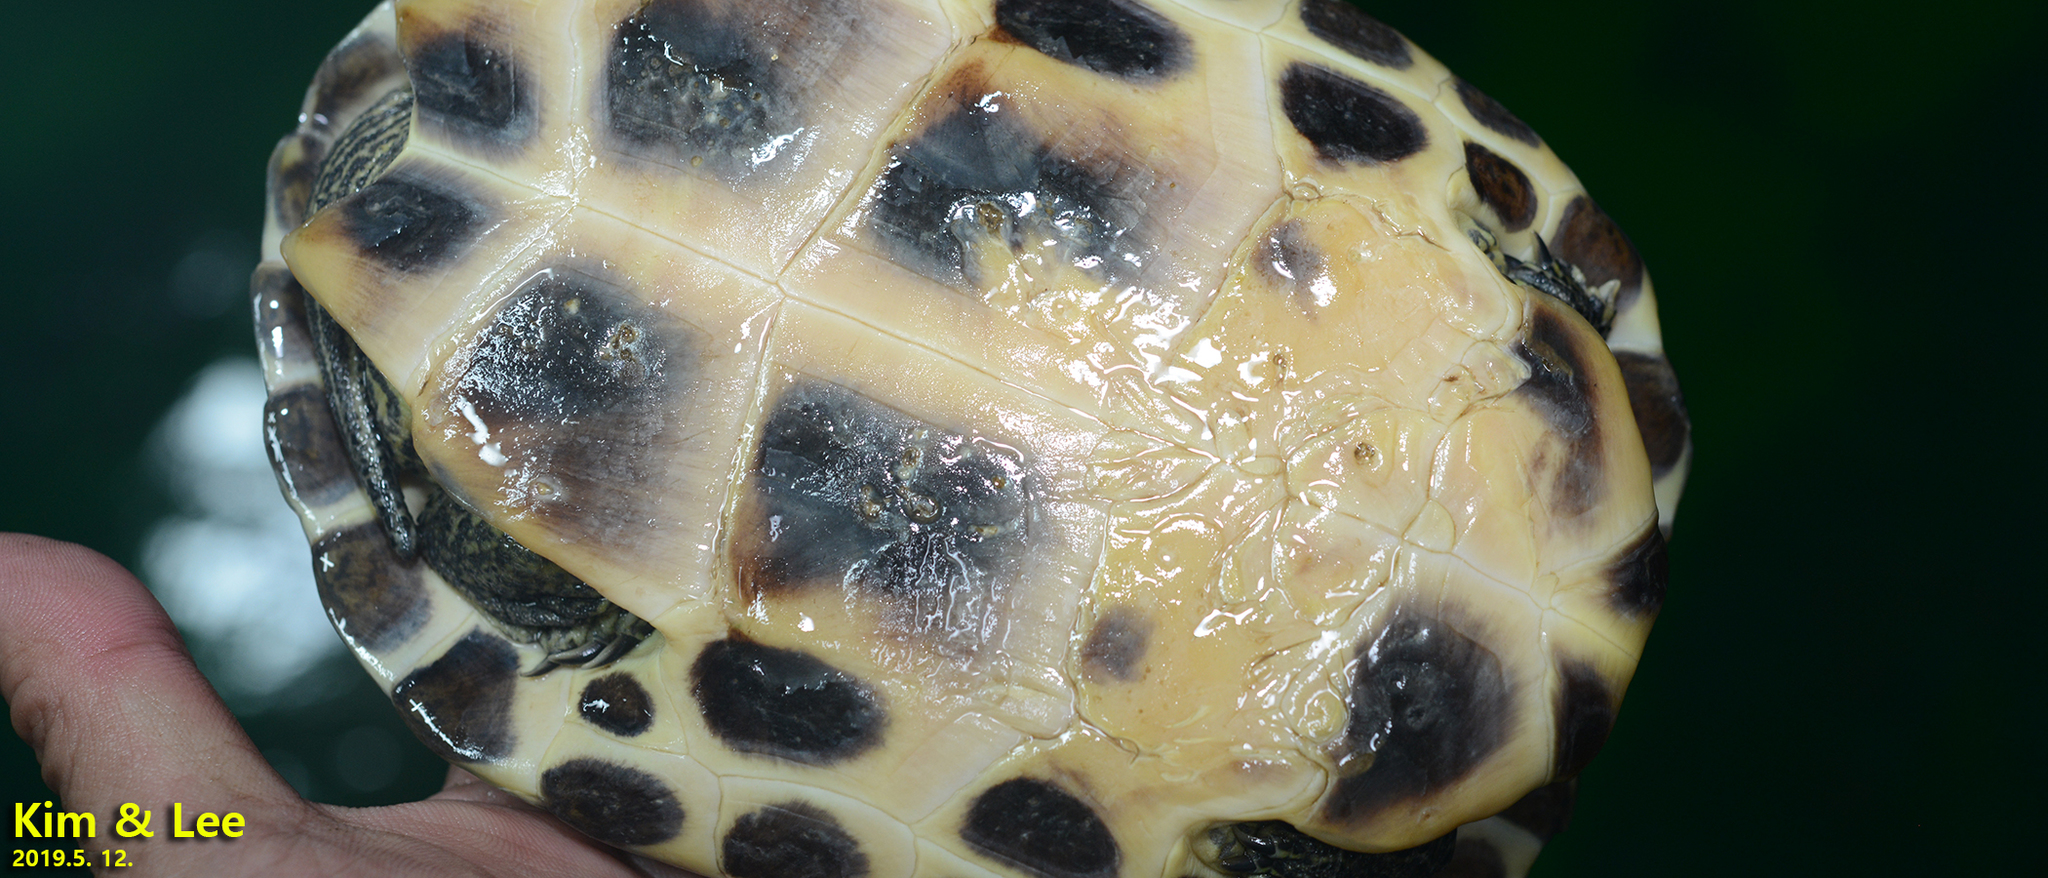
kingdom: Animalia
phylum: Chordata
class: Testudines
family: Geoemydidae
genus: Mauremys
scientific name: Mauremys sinensis
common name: Chinese stripe-necked turtle
